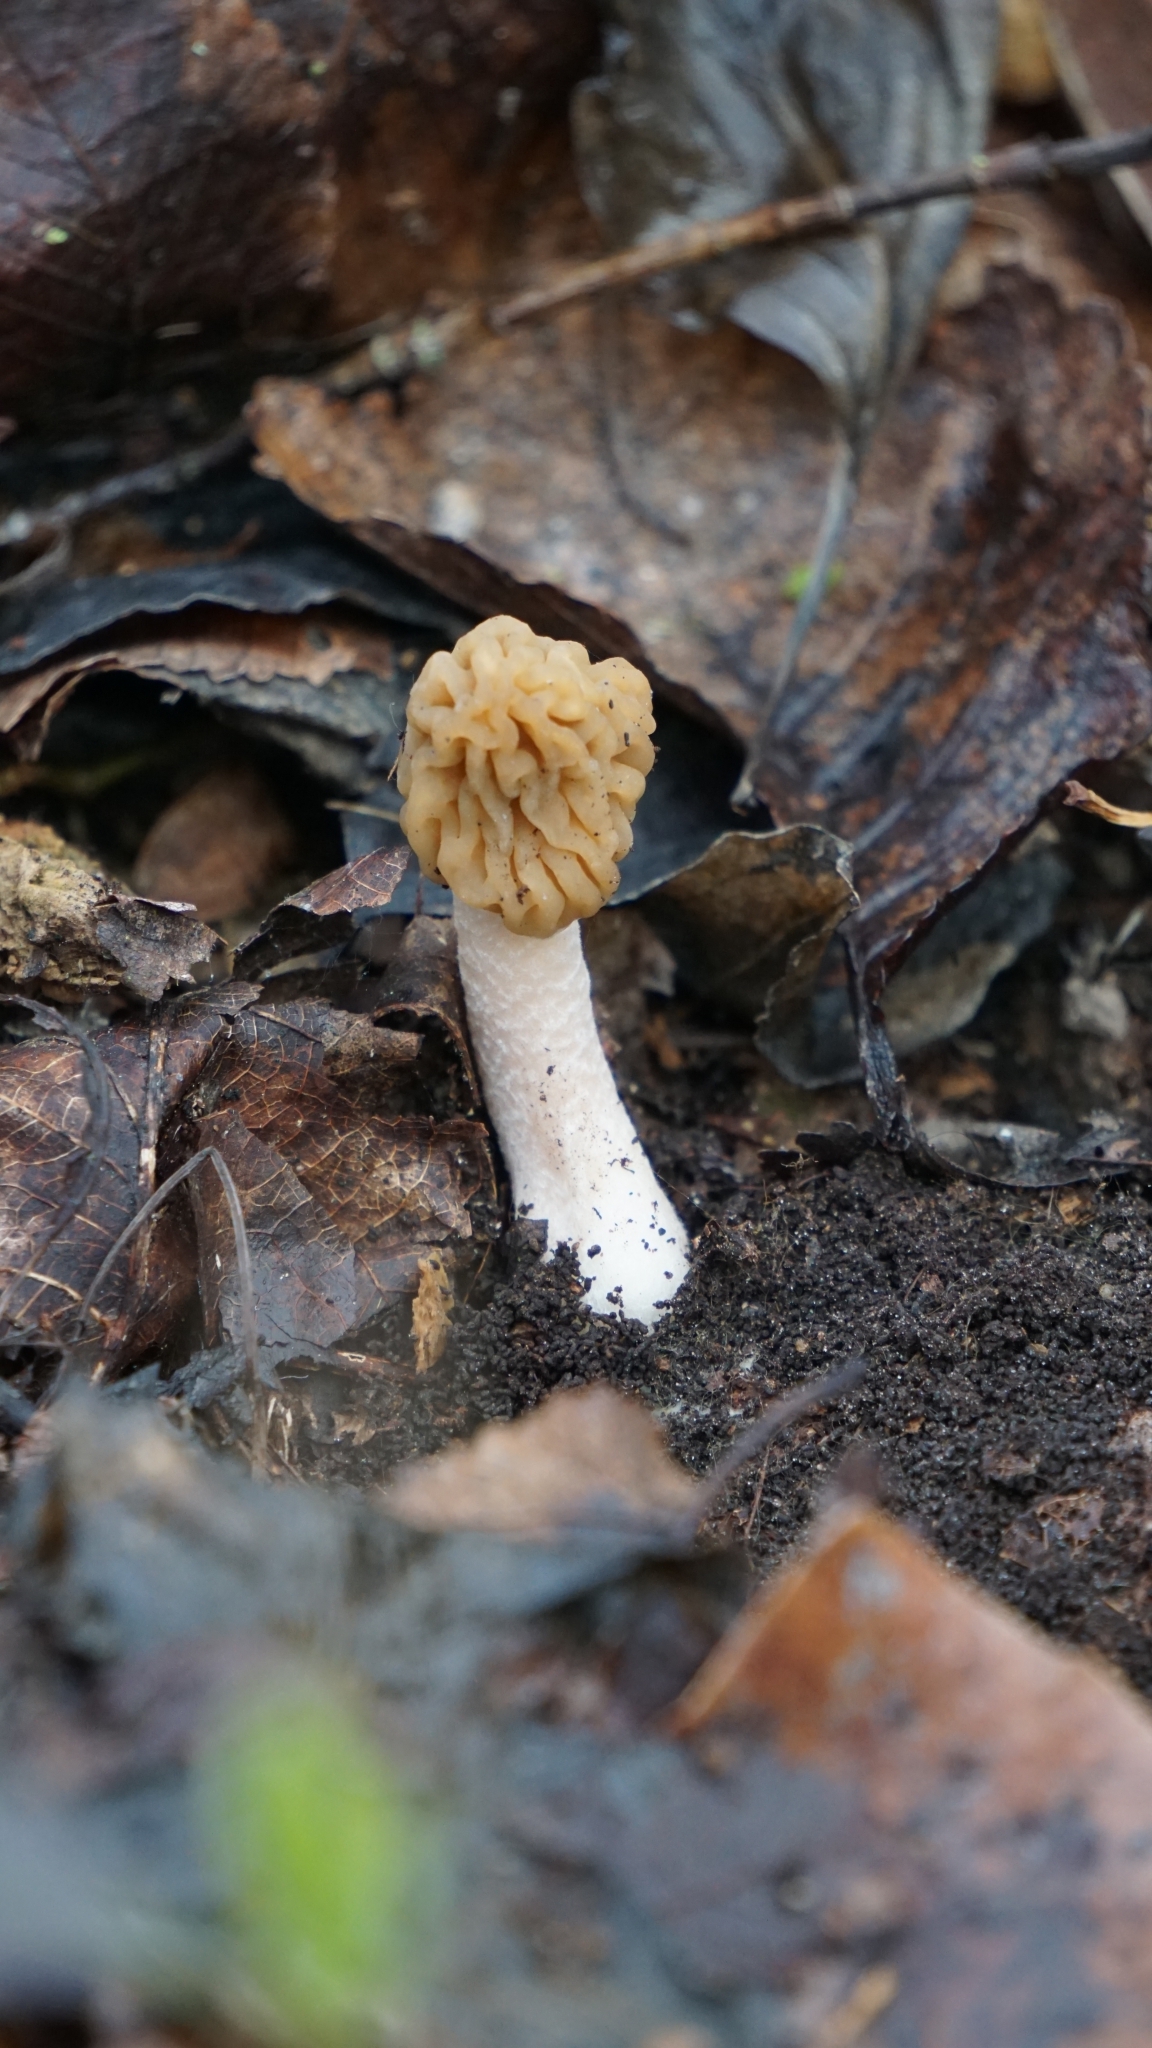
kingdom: Fungi
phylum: Ascomycota
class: Pezizomycetes
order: Pezizales
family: Morchellaceae
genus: Verpa
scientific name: Verpa bohemica
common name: Wrinkled thimble morel
